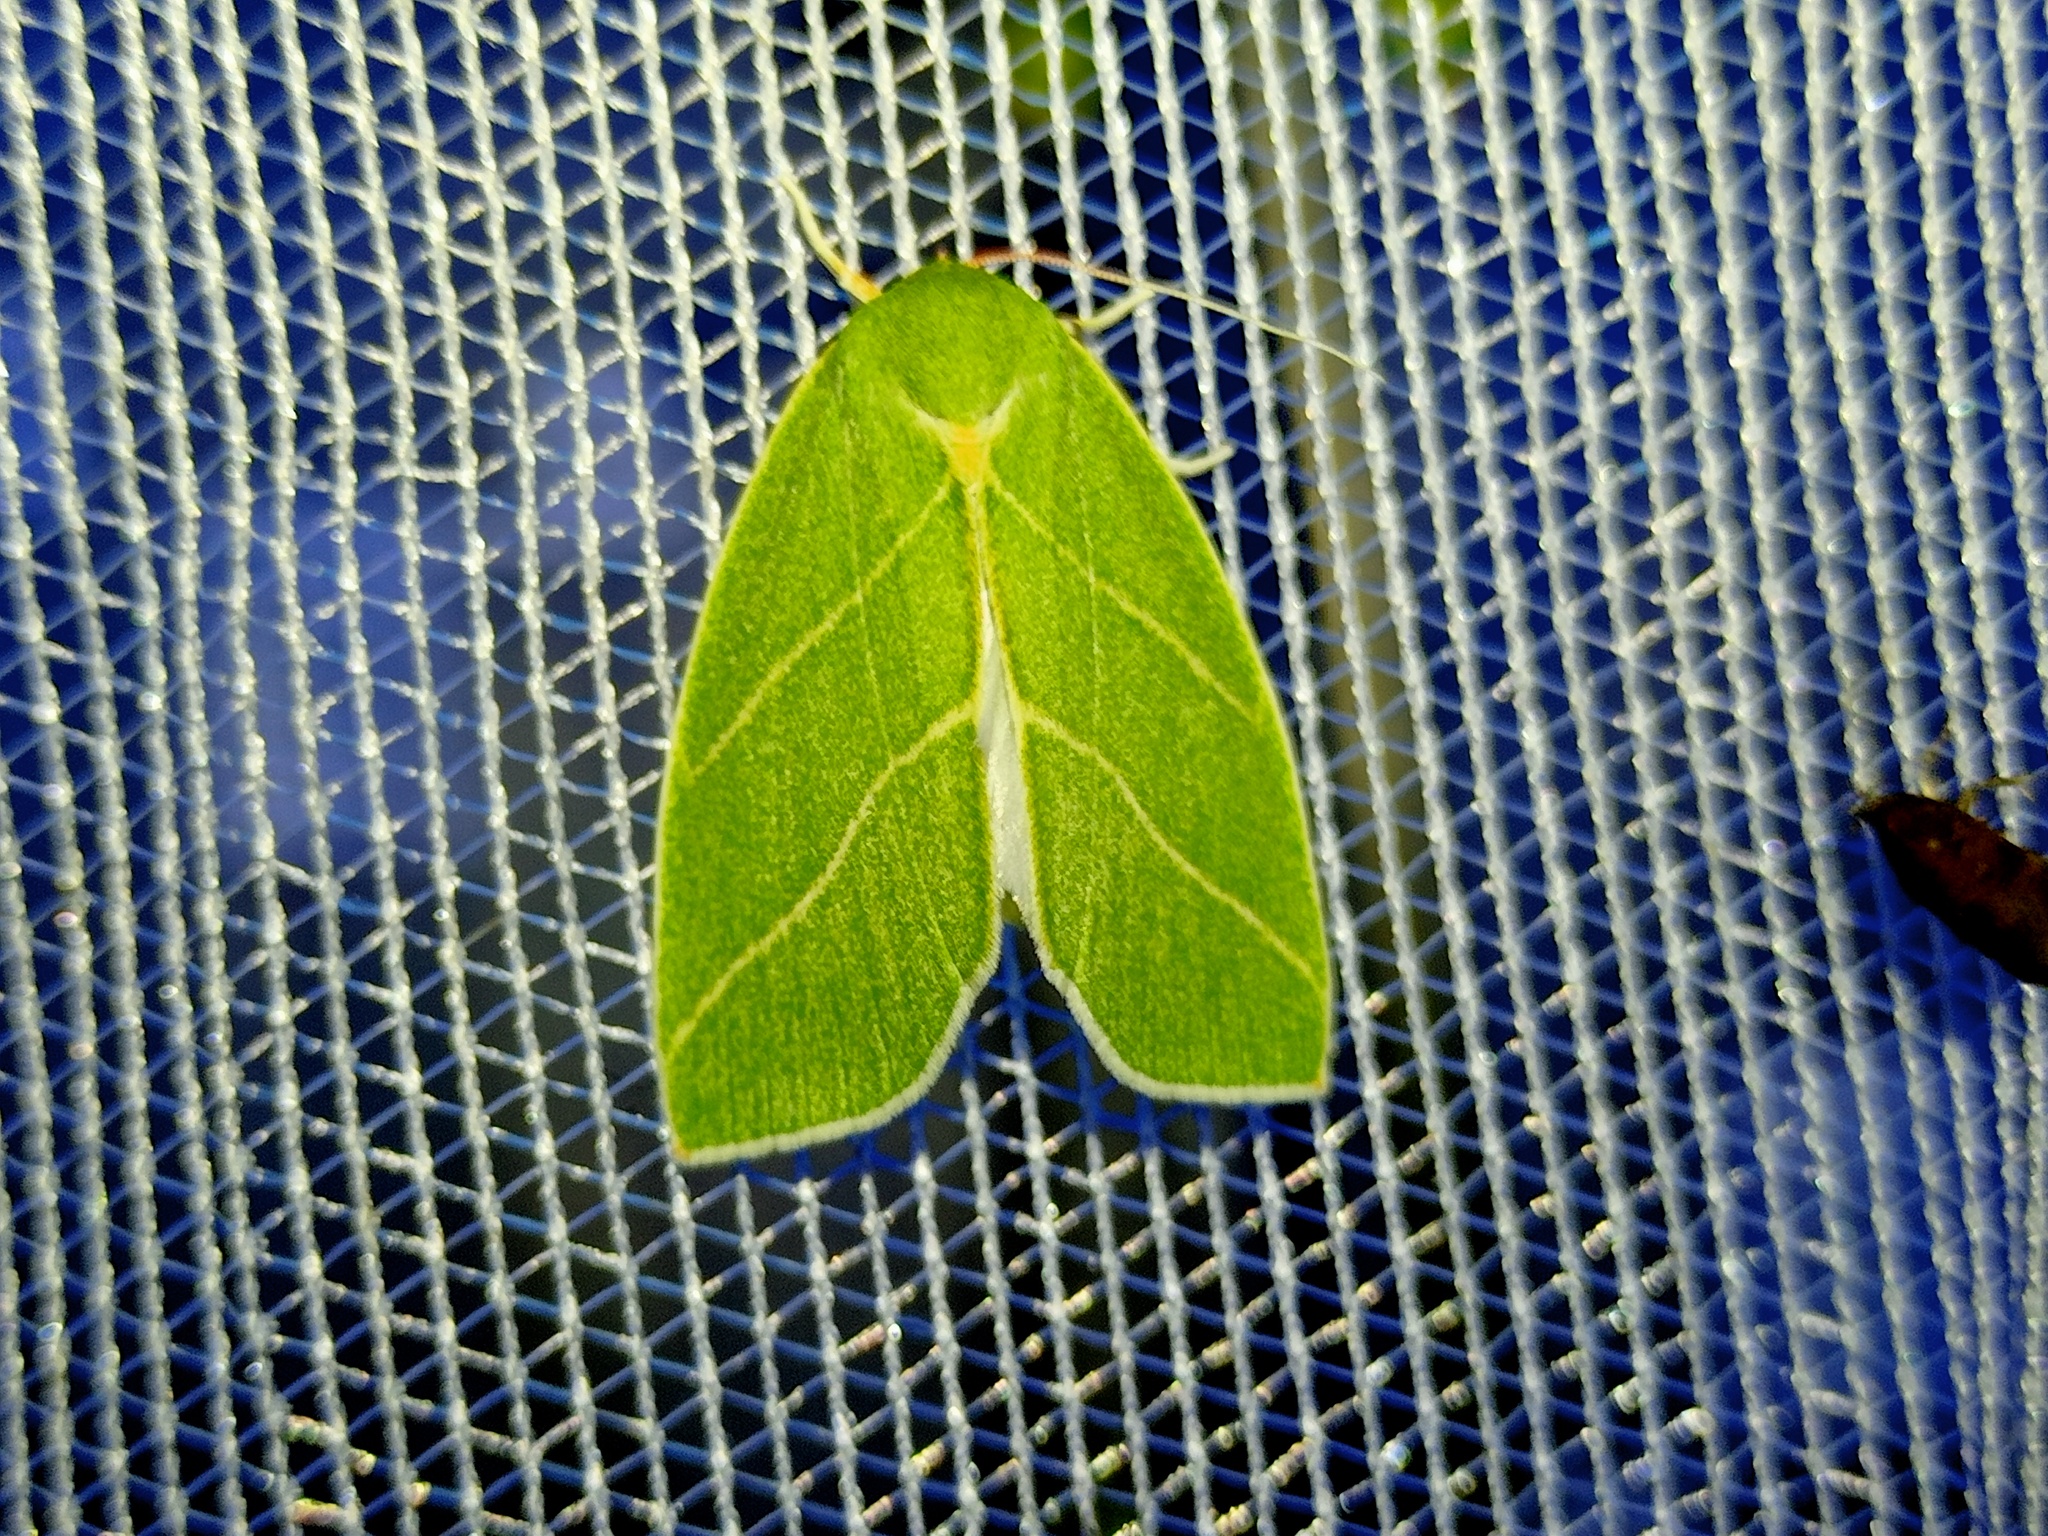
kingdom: Animalia
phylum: Arthropoda
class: Insecta
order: Lepidoptera
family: Nolidae
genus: Bena
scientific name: Bena bicolorana
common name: Scarce silver-lines
